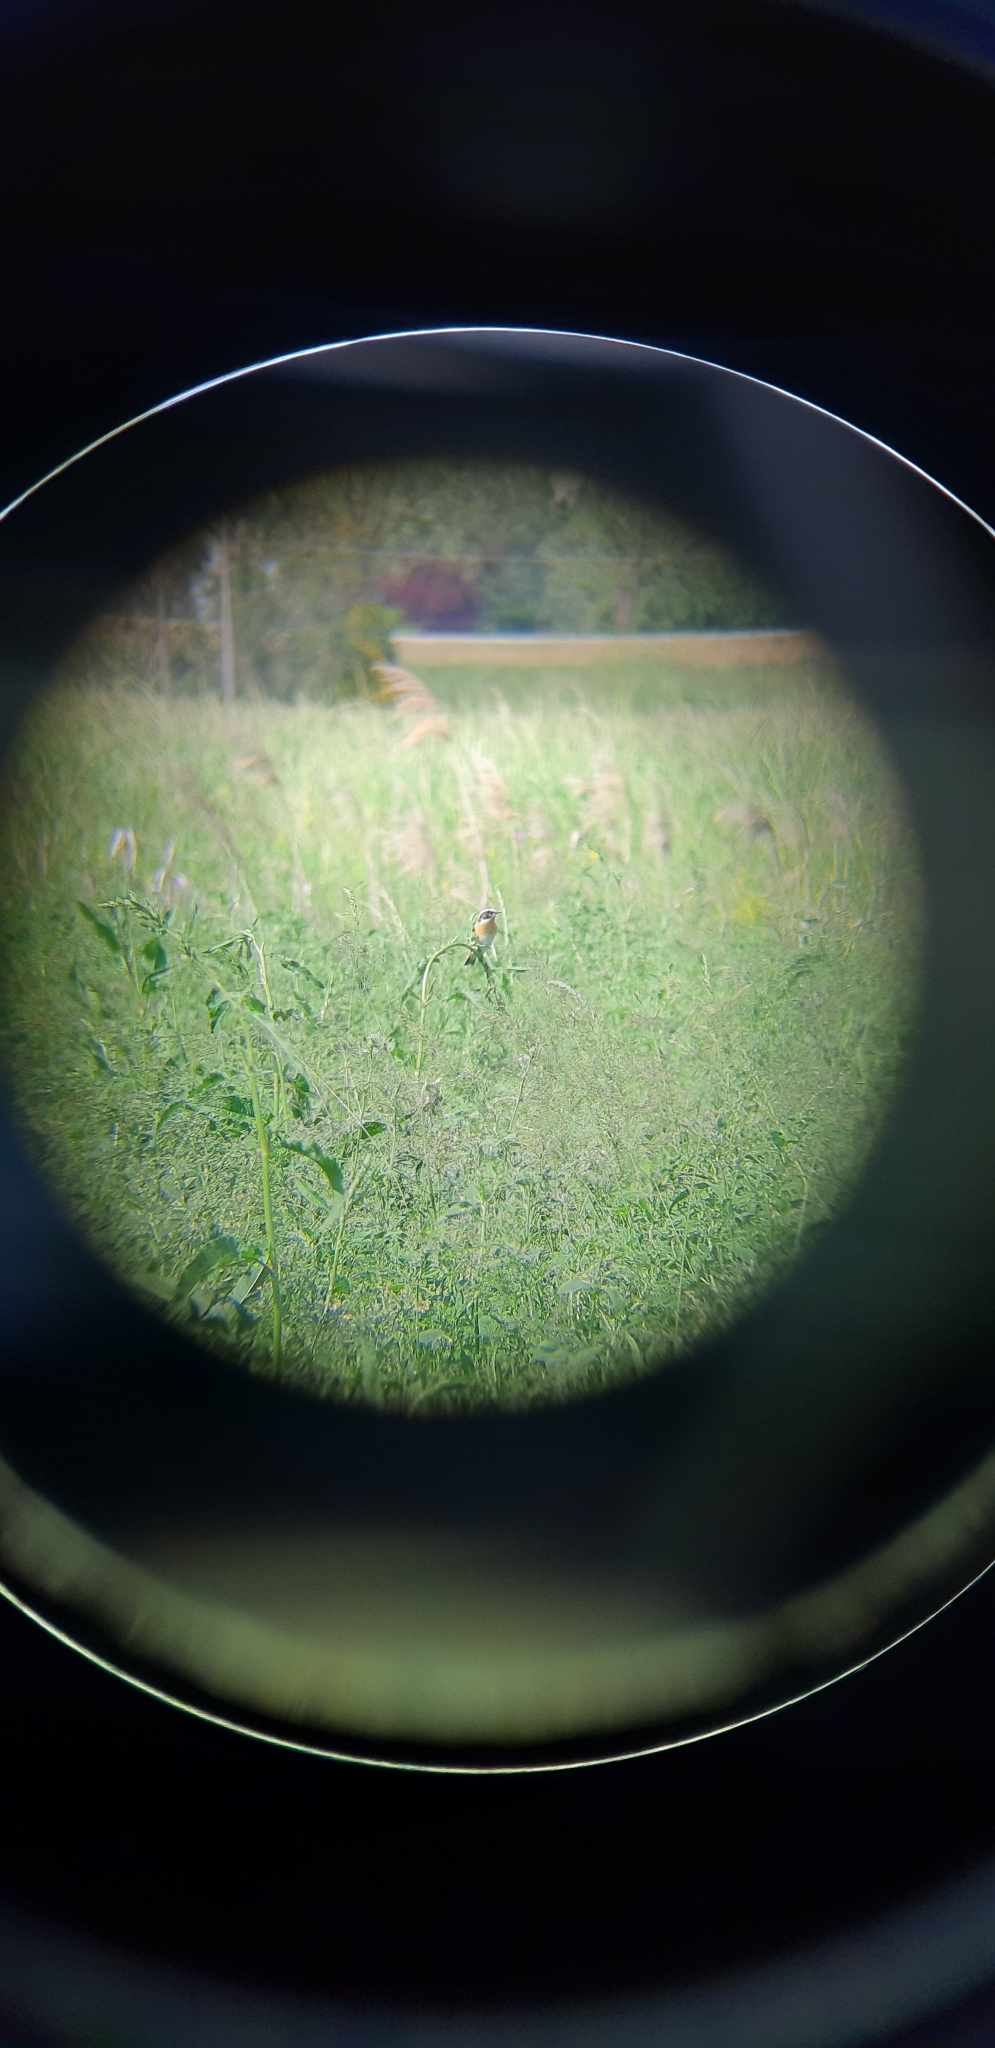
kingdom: Animalia
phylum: Chordata
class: Aves
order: Passeriformes
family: Muscicapidae
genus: Saxicola
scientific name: Saxicola rubetra
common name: Whinchat
